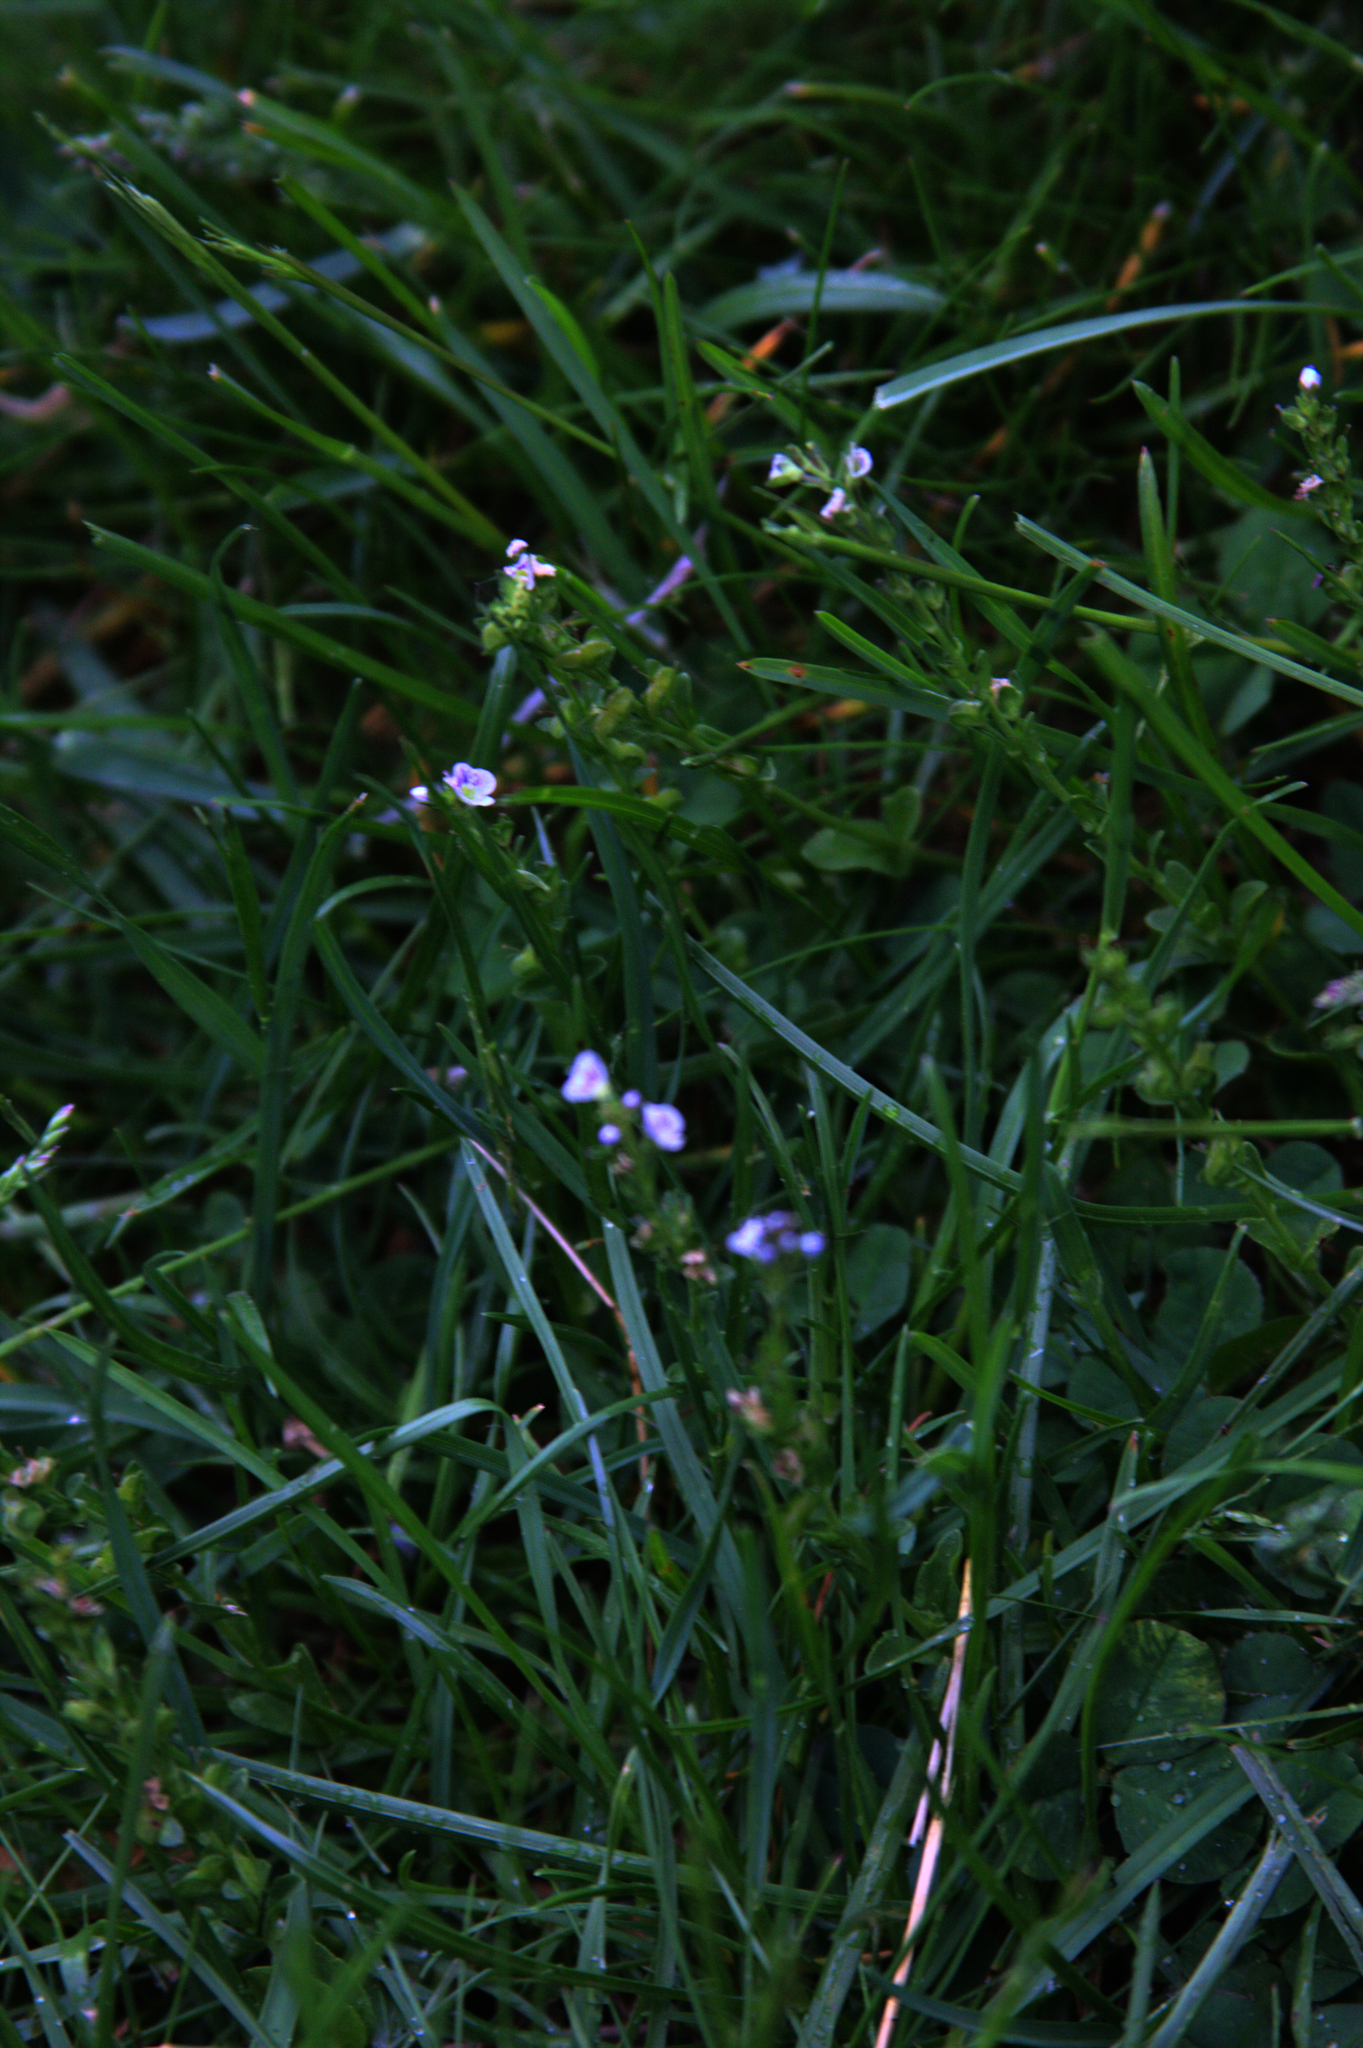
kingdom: Plantae
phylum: Tracheophyta
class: Magnoliopsida
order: Lamiales
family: Plantaginaceae
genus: Veronica
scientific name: Veronica serpyllifolia
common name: Thyme-leaved speedwell
